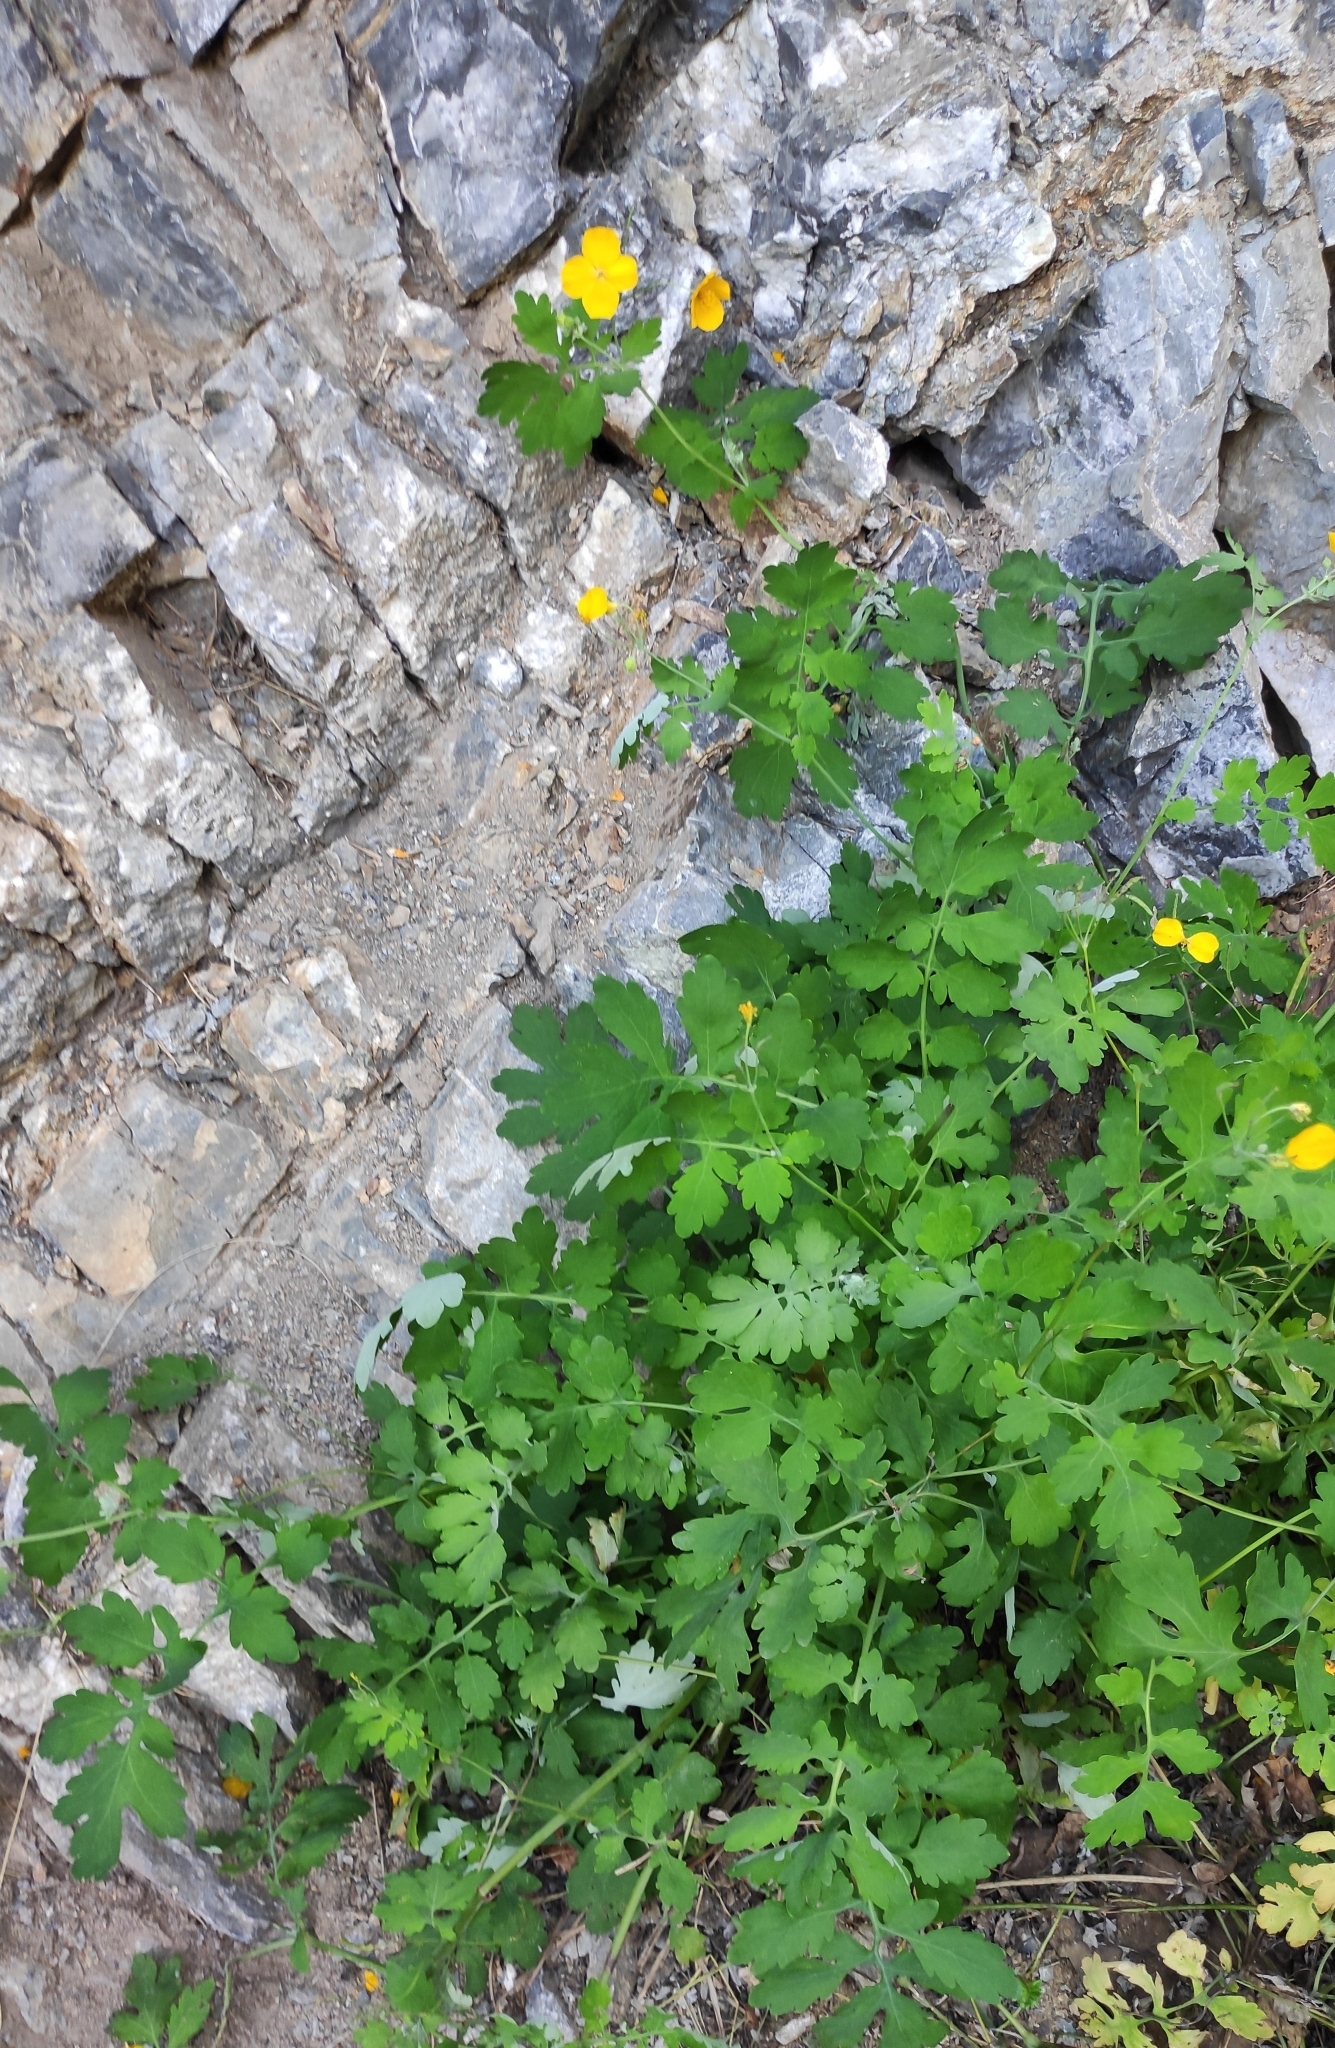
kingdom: Plantae
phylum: Tracheophyta
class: Magnoliopsida
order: Ranunculales
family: Papaveraceae
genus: Chelidonium
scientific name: Chelidonium majus
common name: Greater celandine
